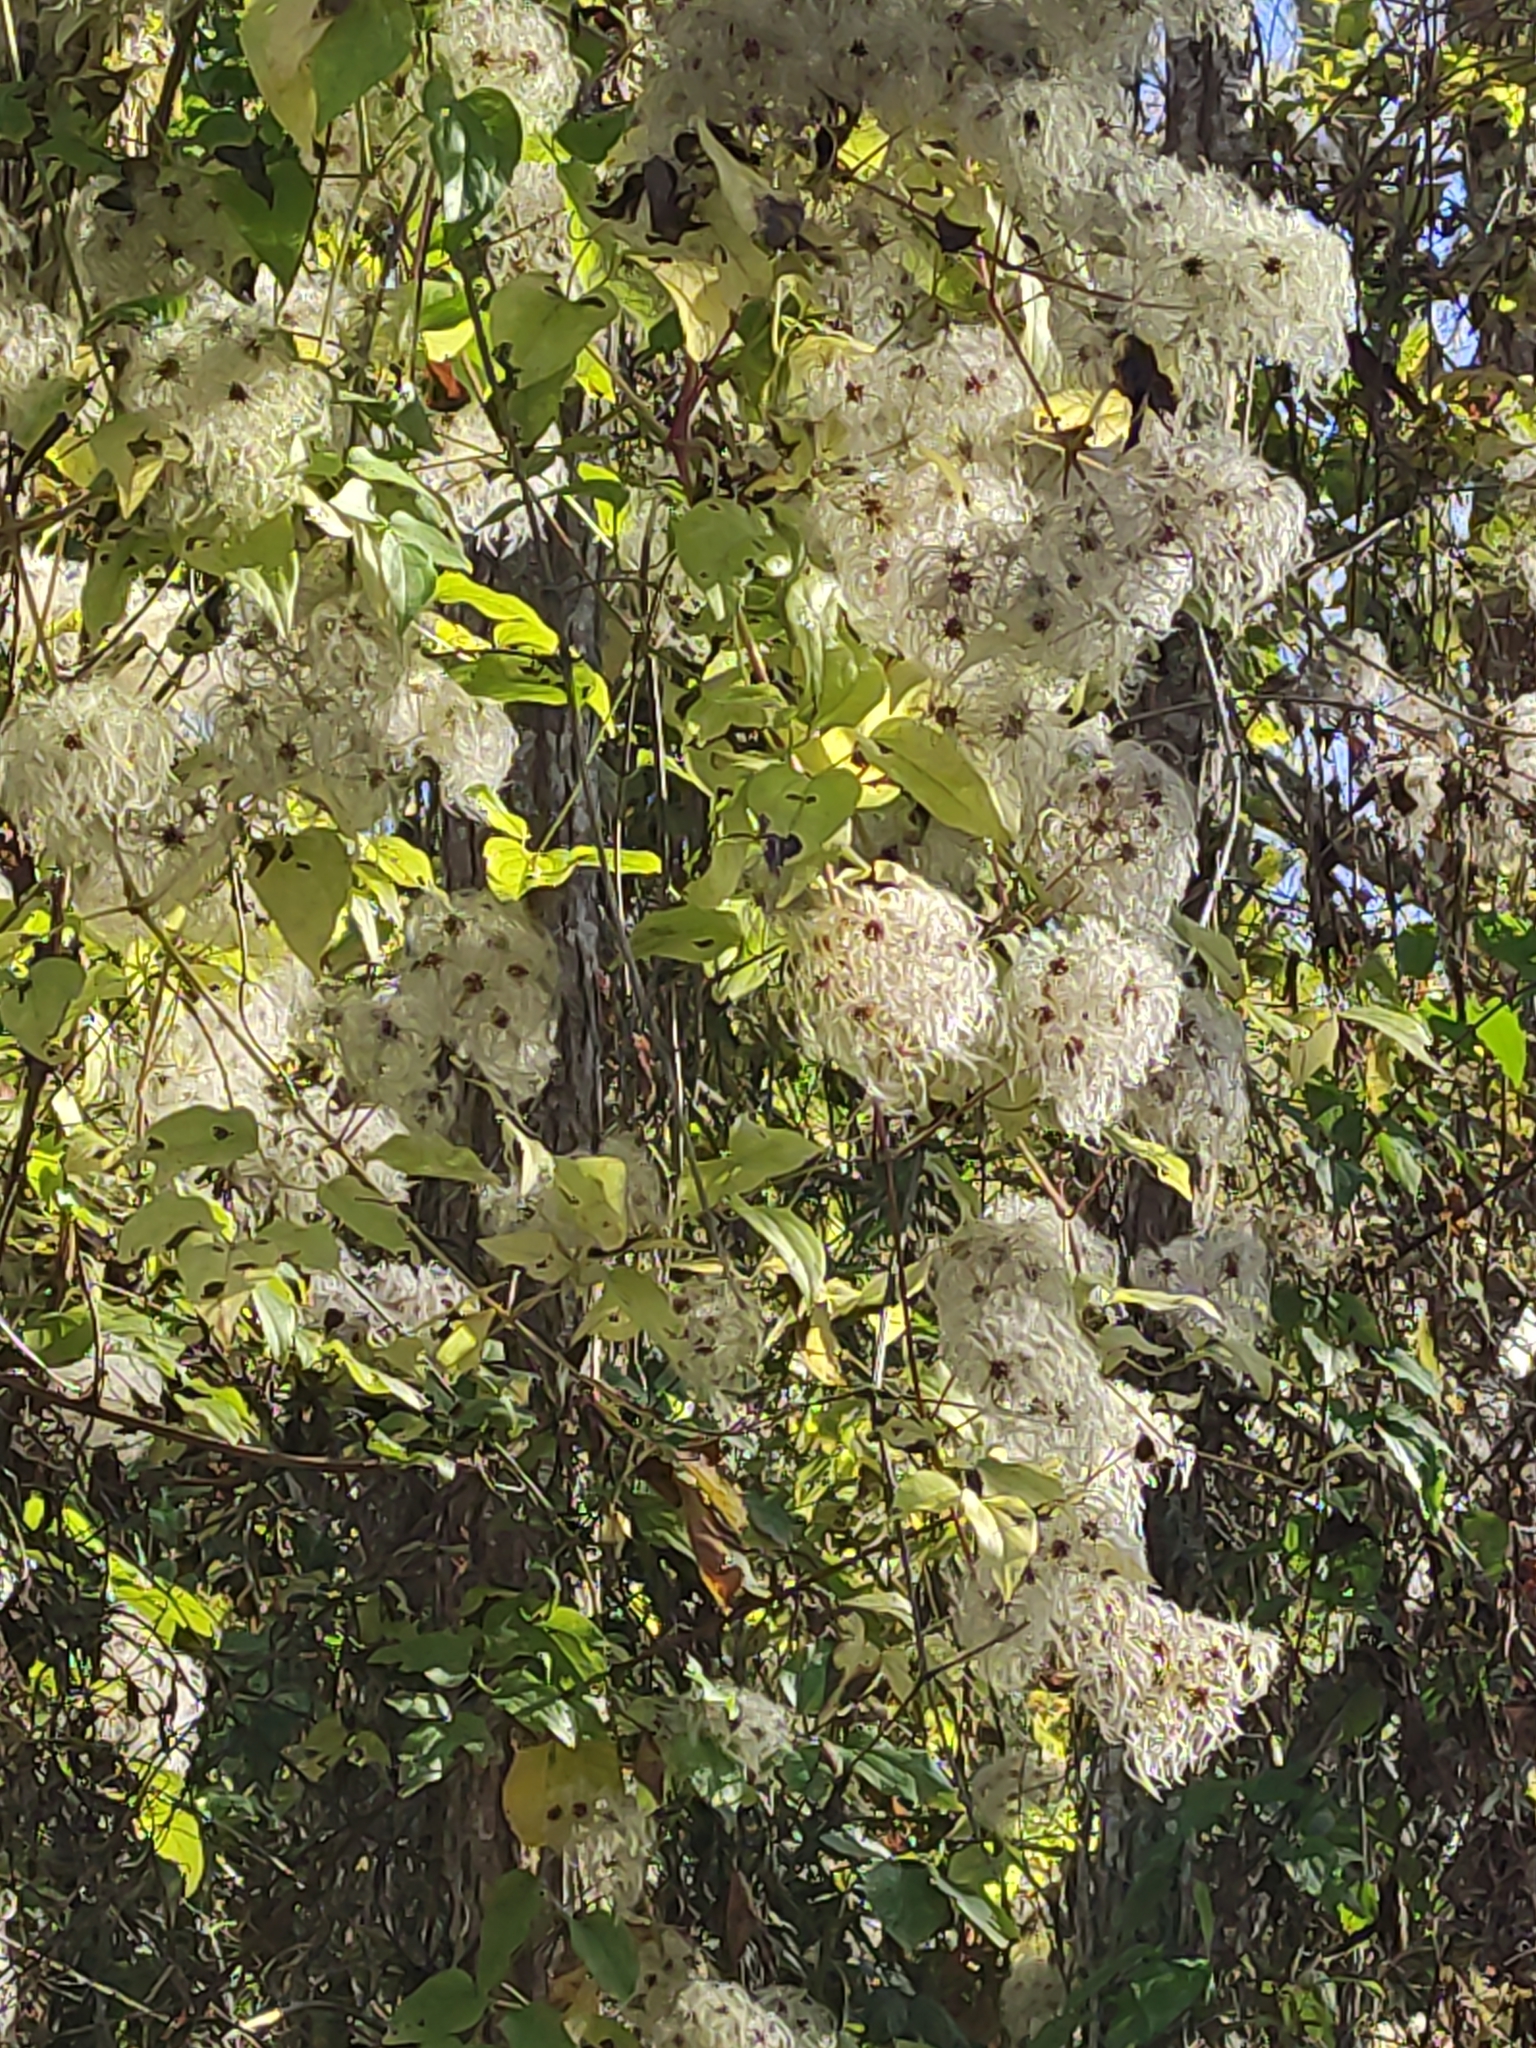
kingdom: Plantae
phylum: Tracheophyta
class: Magnoliopsida
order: Ranunculales
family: Ranunculaceae
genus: Clematis
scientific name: Clematis vitalba
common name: Evergreen clematis
